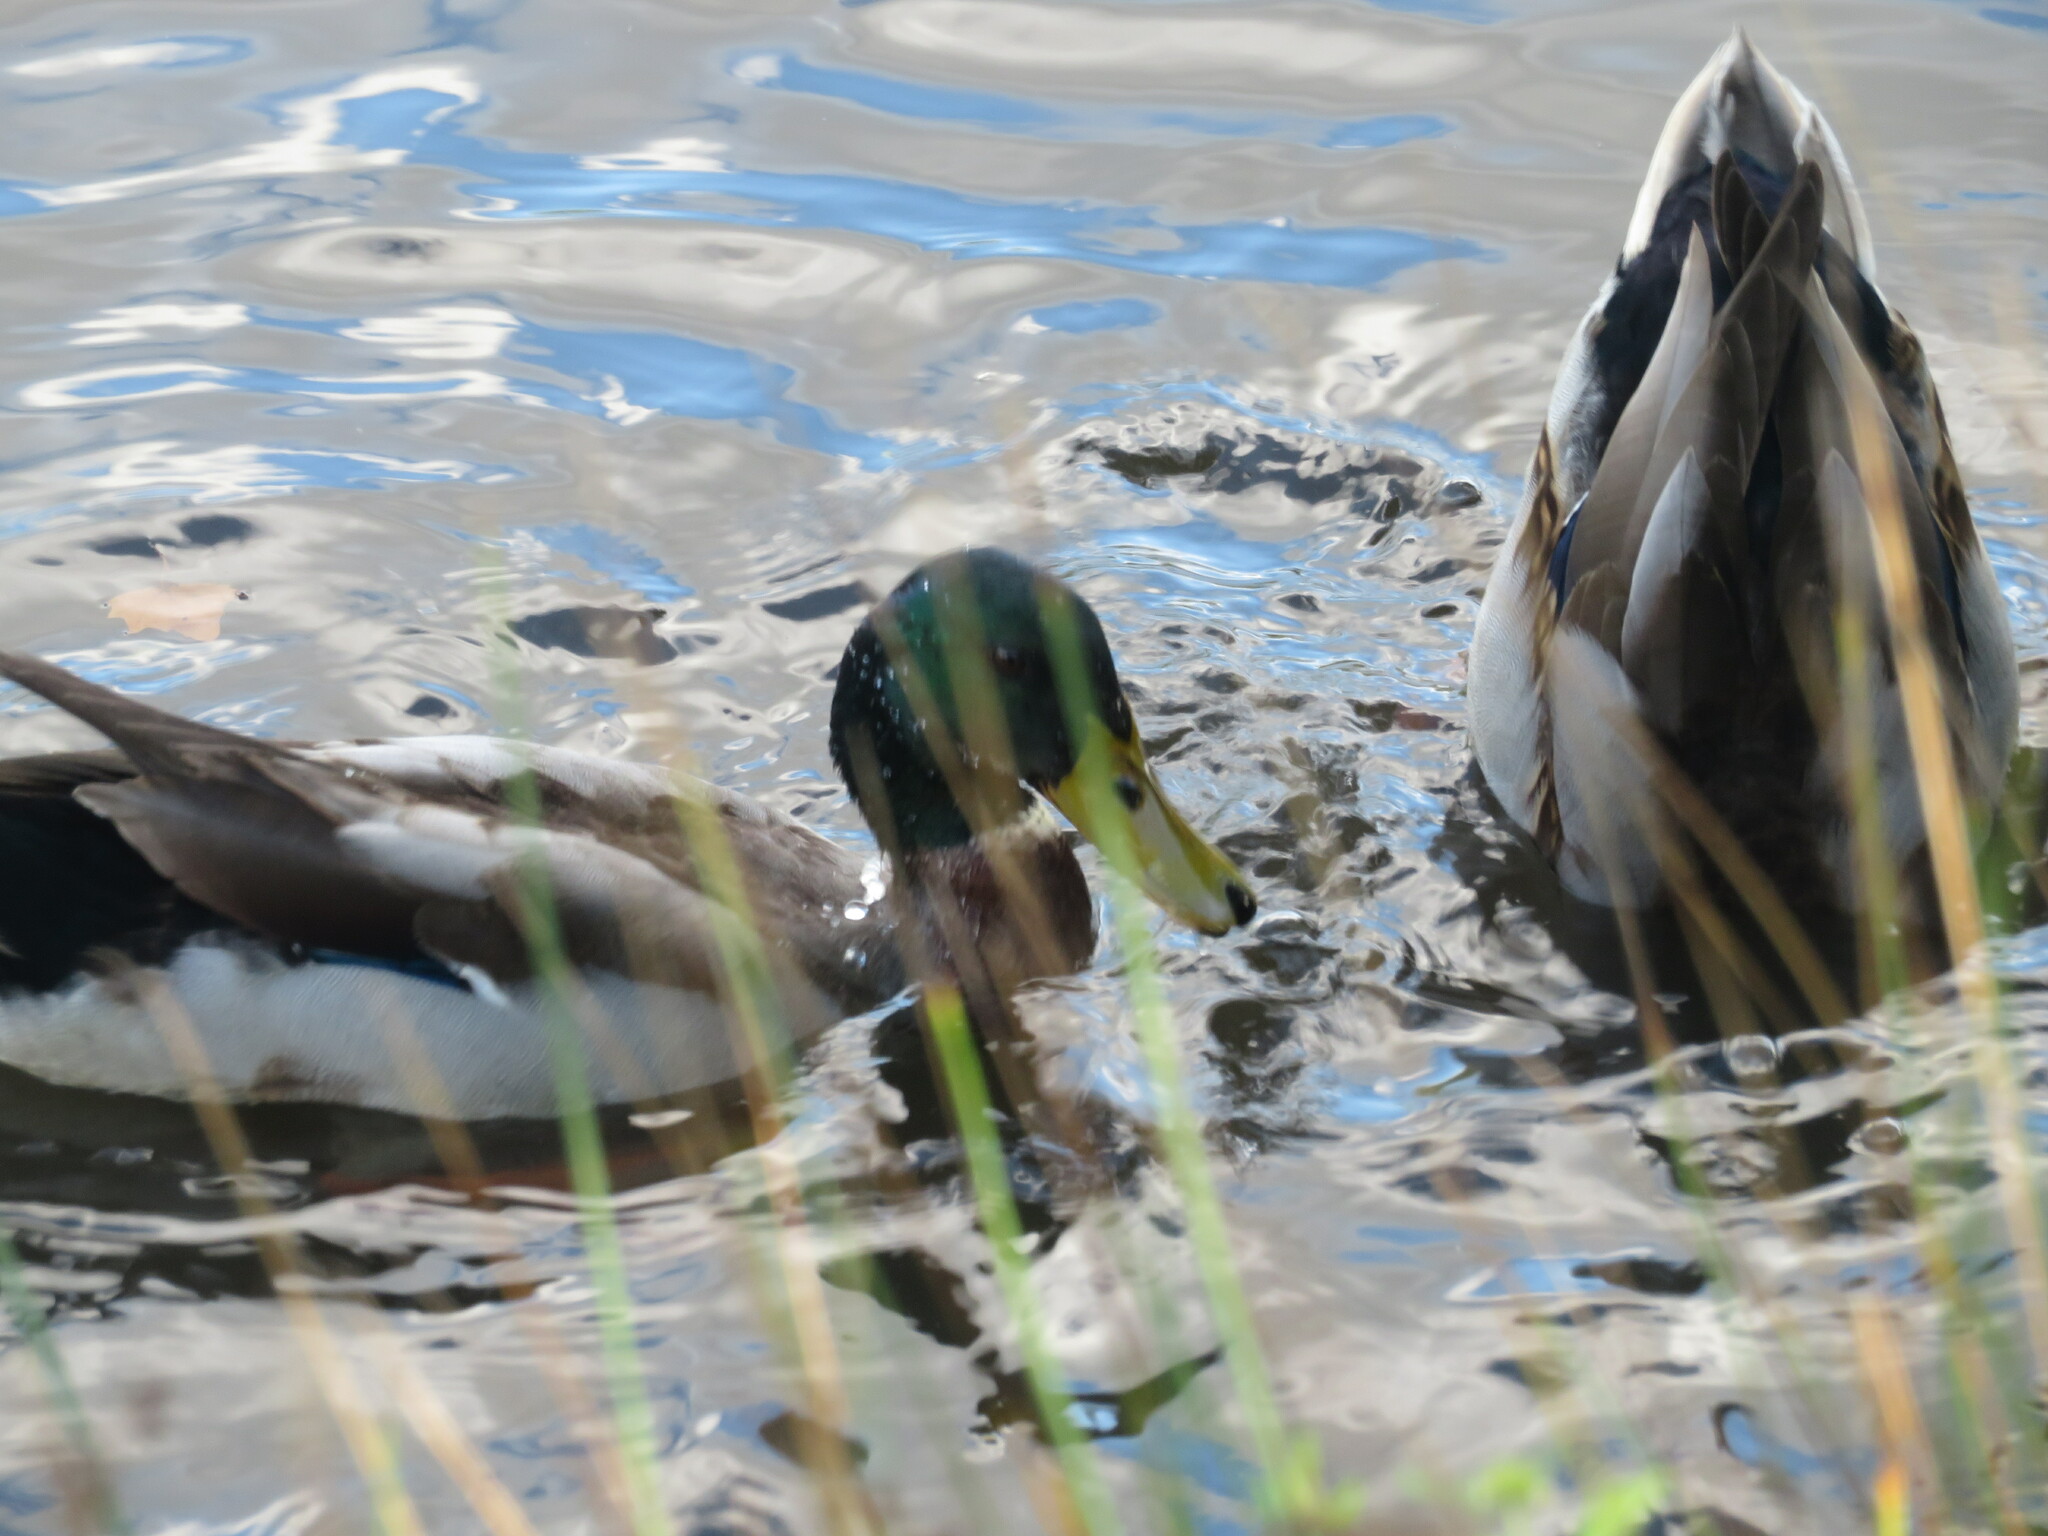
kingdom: Animalia
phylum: Chordata
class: Aves
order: Anseriformes
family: Anatidae
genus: Anas
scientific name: Anas platyrhynchos
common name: Mallard
